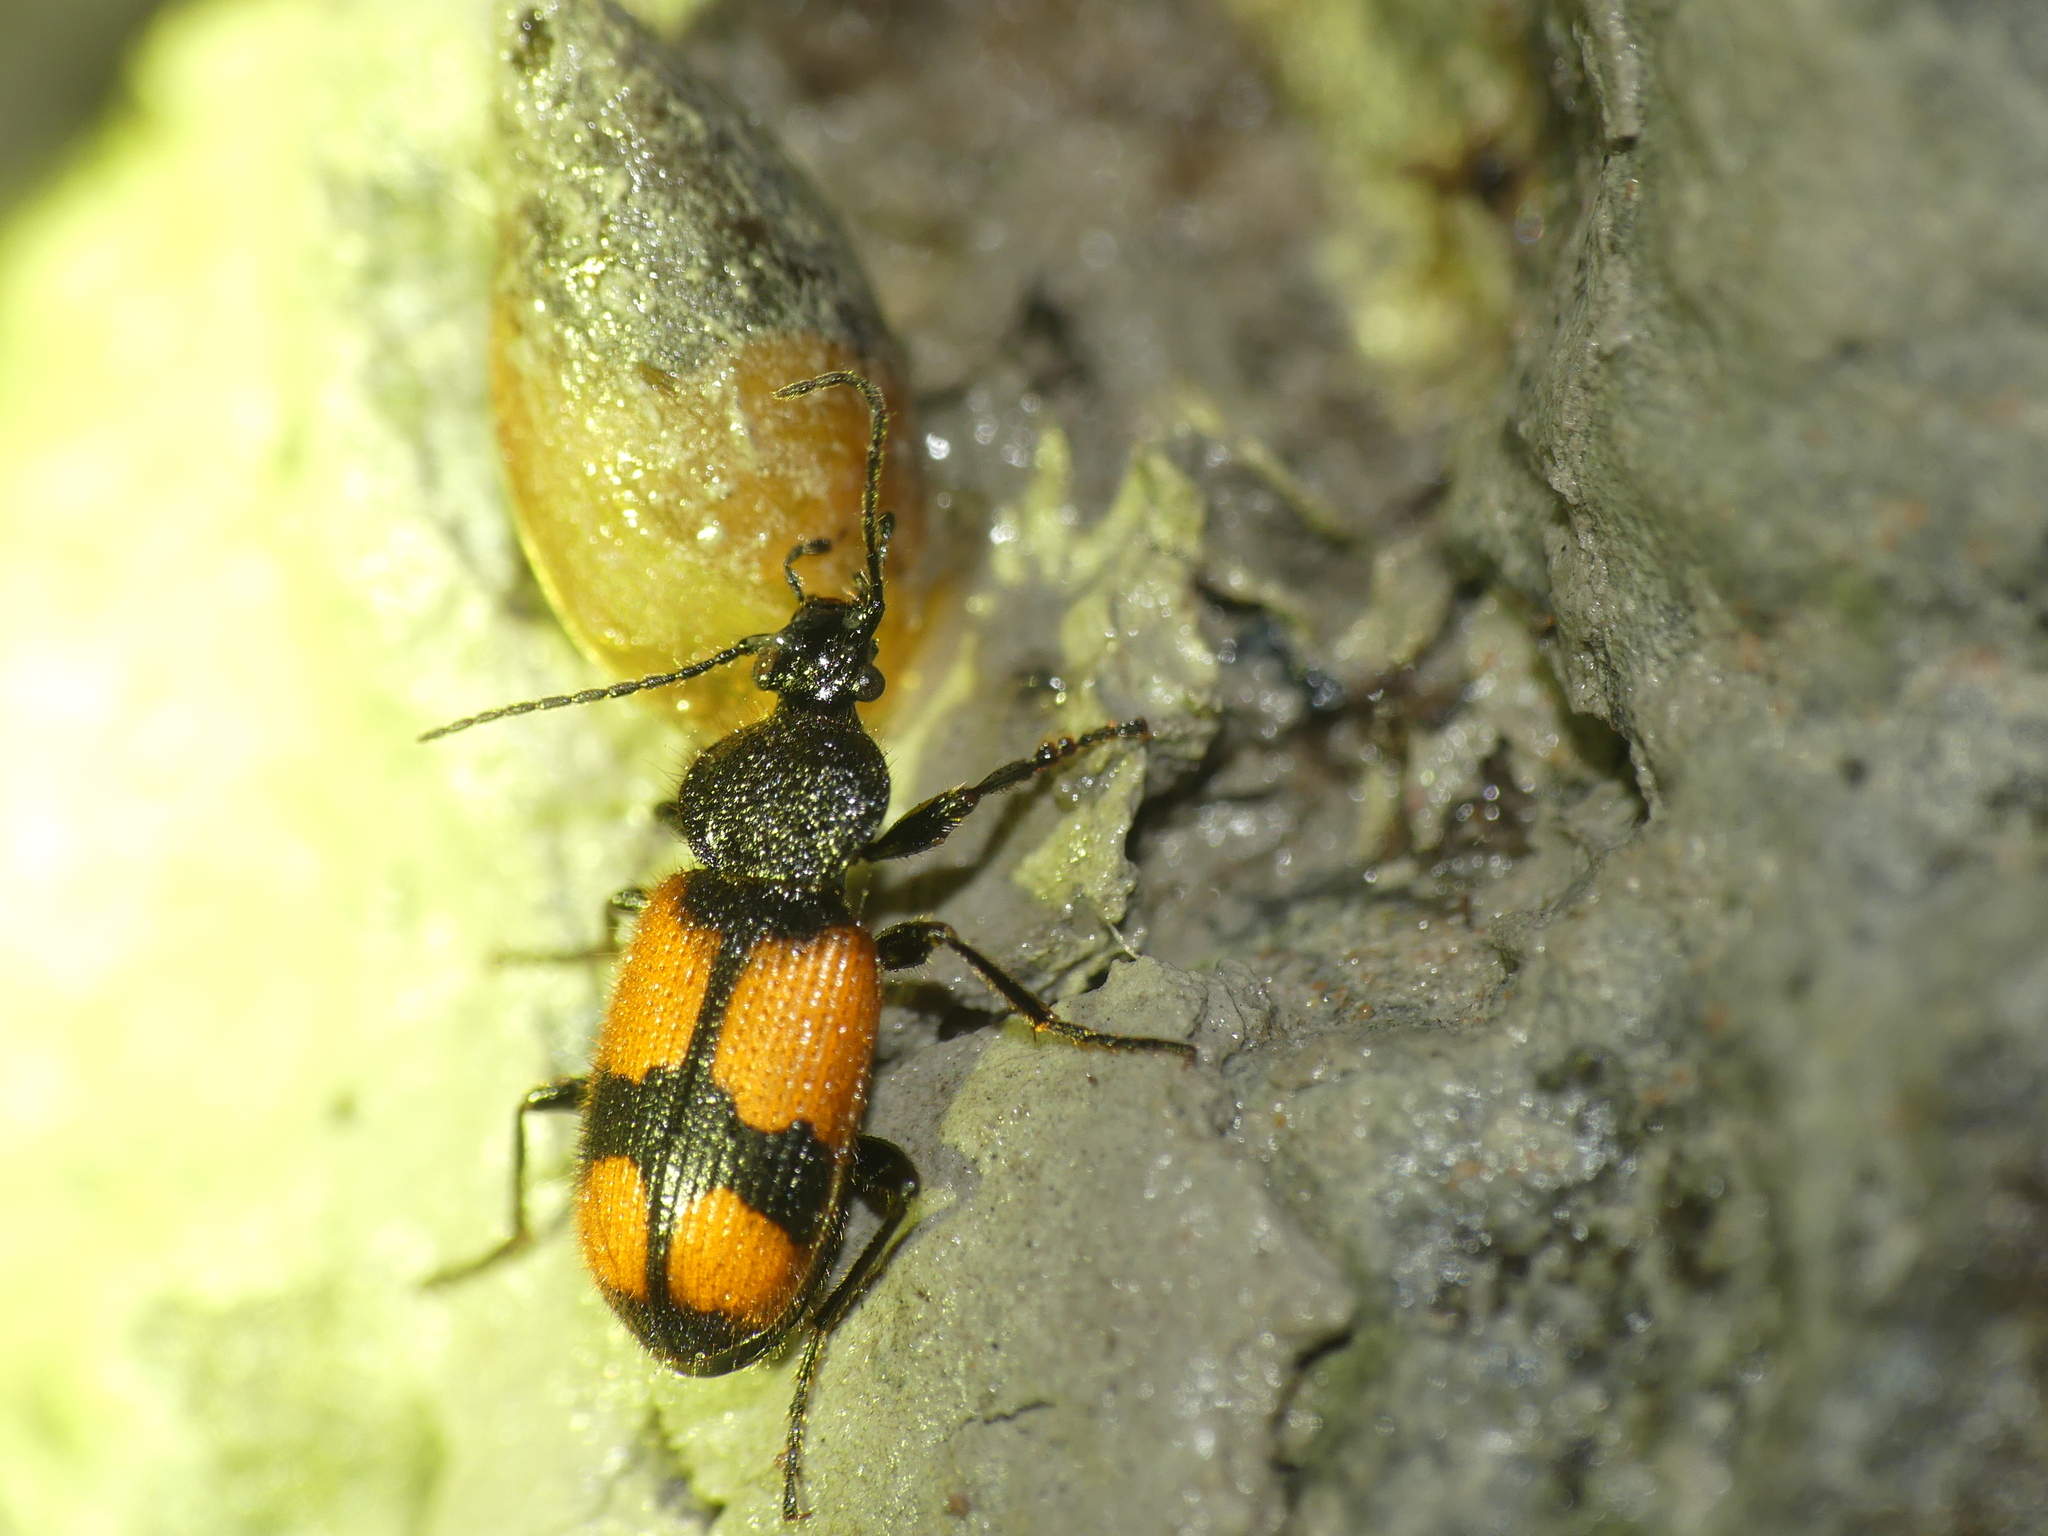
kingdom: Animalia
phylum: Arthropoda
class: Insecta
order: Coleoptera
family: Carabidae
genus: Panagaeus
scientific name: Panagaeus cruxmajor
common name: Crucifix ground beetle
